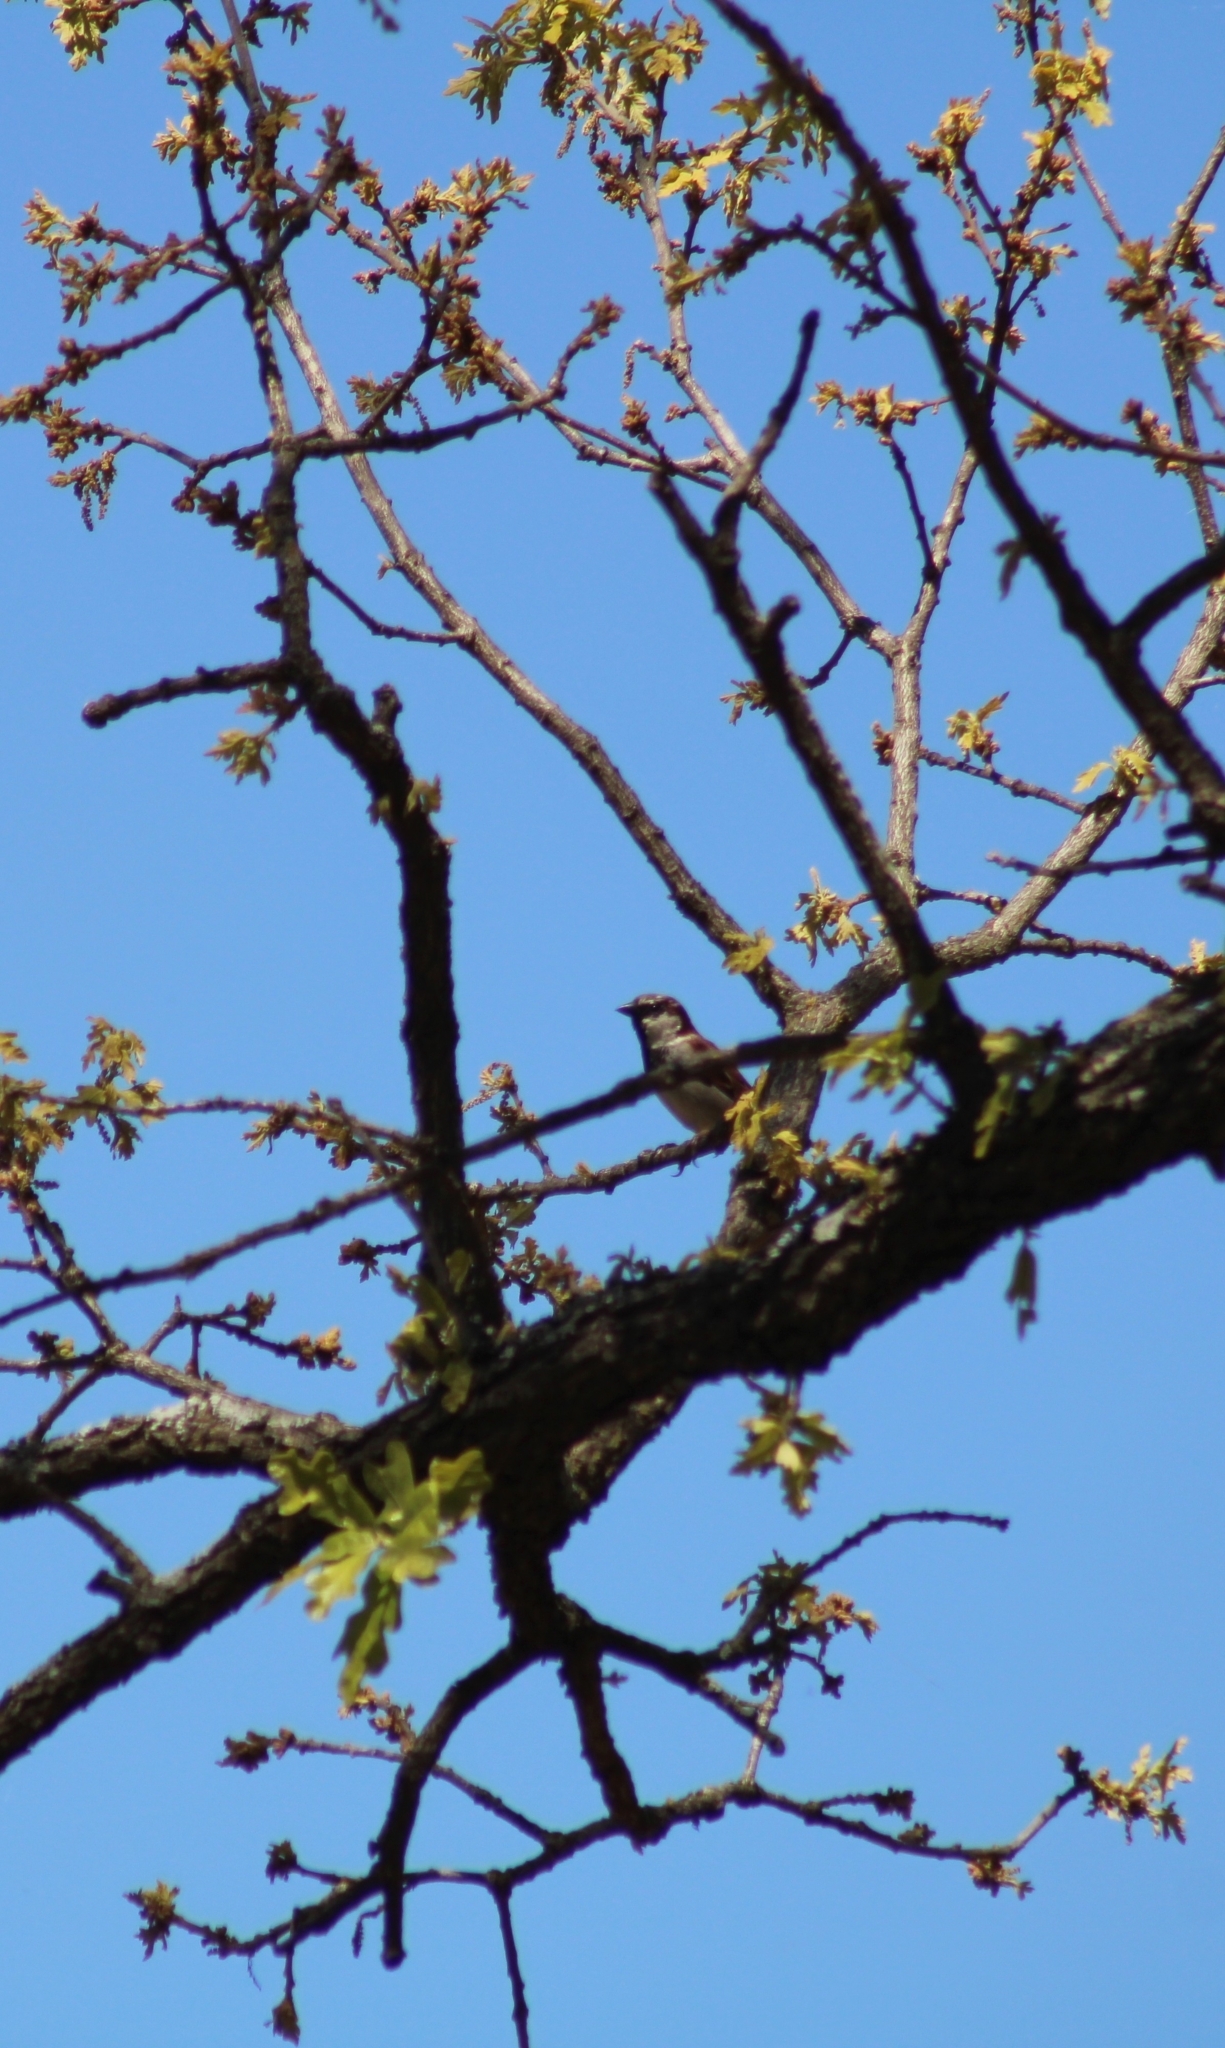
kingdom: Animalia
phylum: Chordata
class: Aves
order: Passeriformes
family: Passeridae
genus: Passer
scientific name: Passer domesticus
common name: House sparrow
